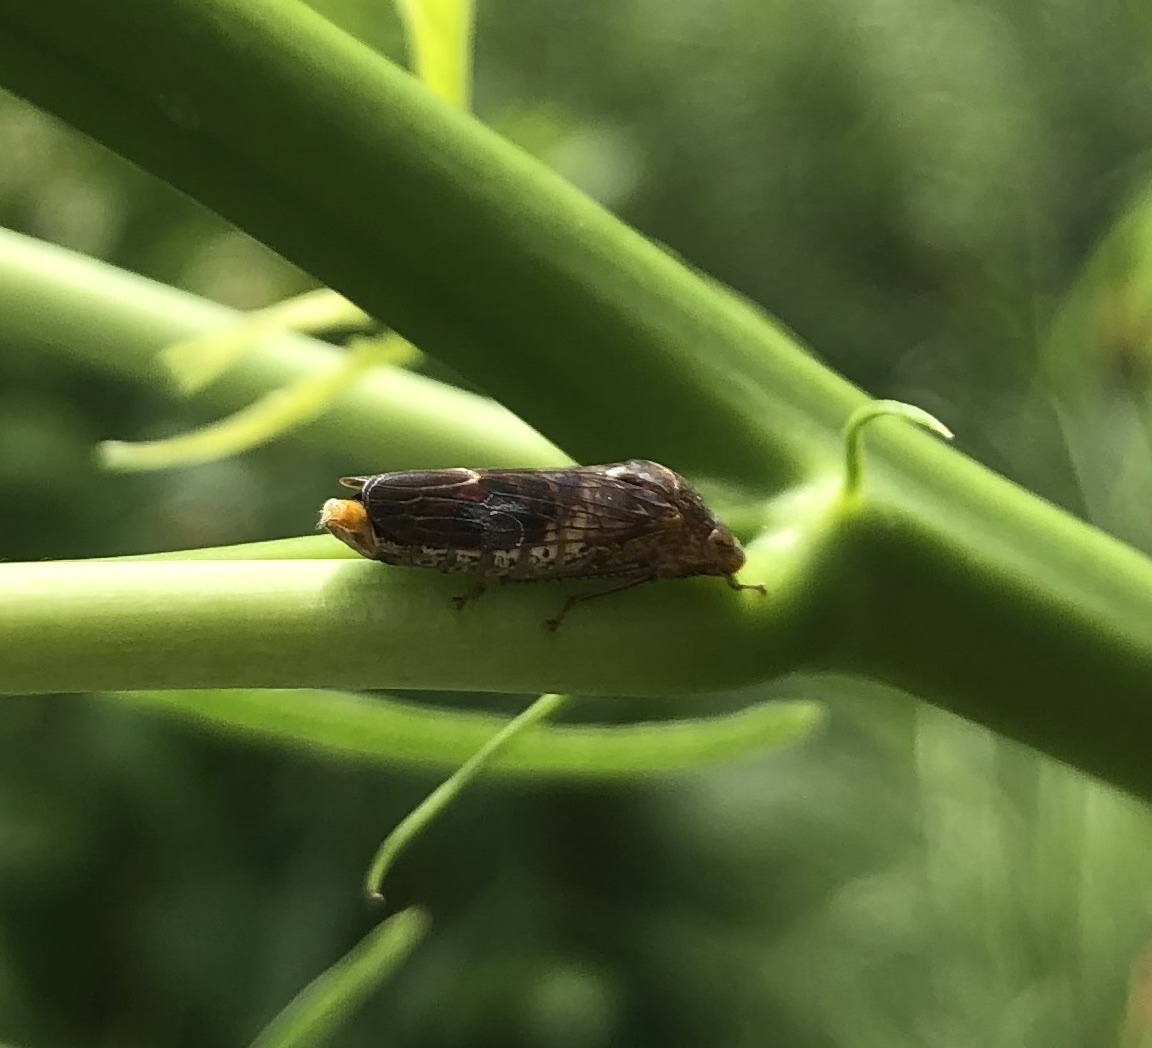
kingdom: Animalia
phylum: Arthropoda
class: Insecta
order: Hemiptera
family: Cicadellidae
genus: Homalodisca
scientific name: Homalodisca vitripennis
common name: Glassy-winged sharpshooter
